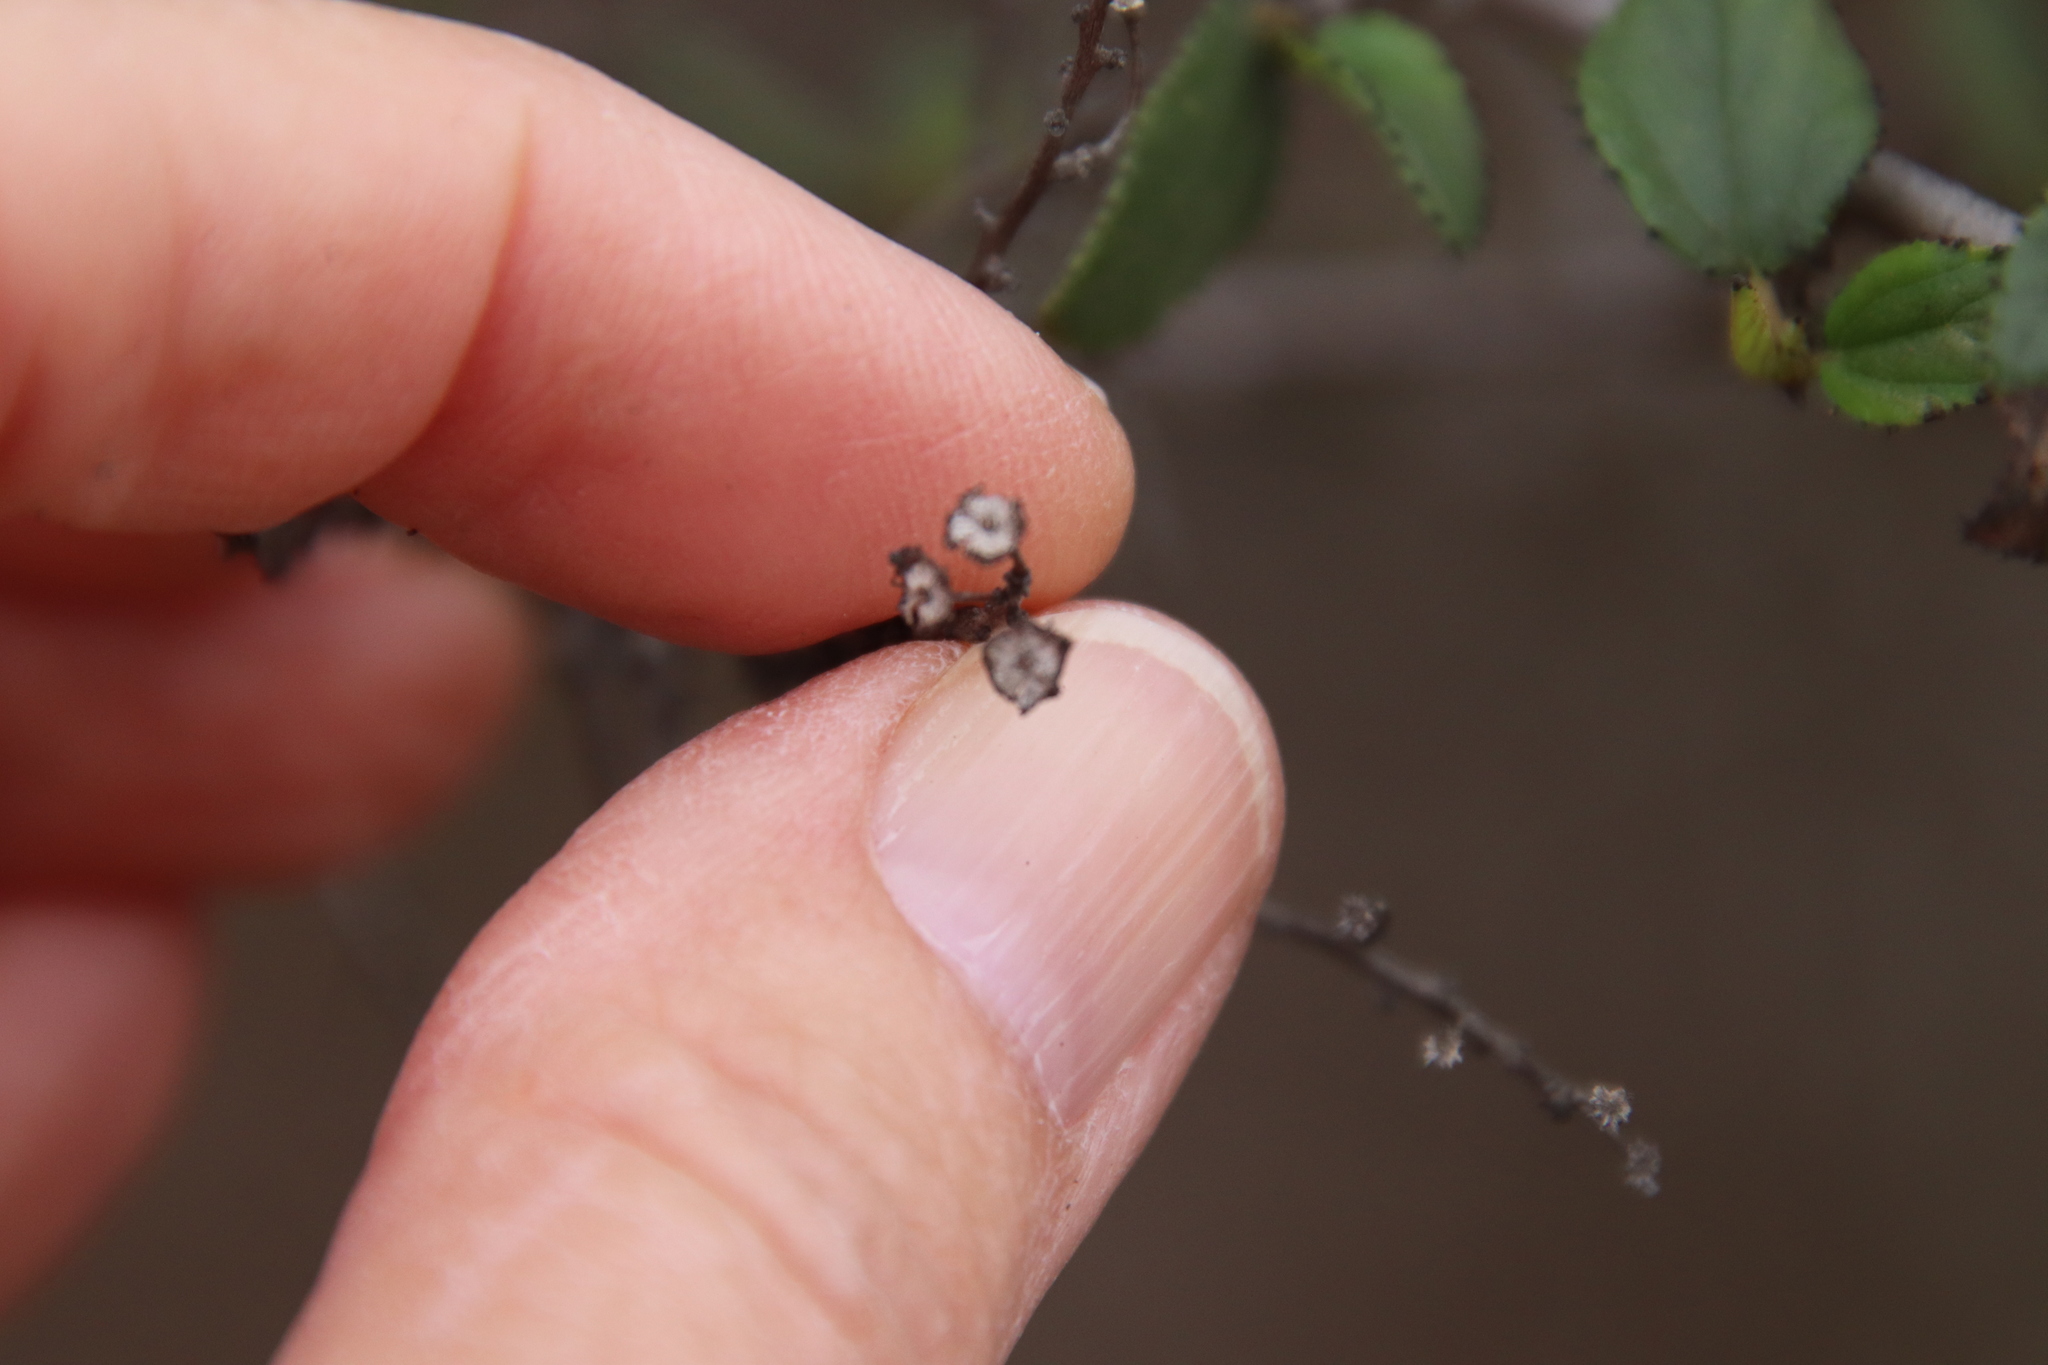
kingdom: Plantae
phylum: Tracheophyta
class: Magnoliopsida
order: Rosales
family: Rhamnaceae
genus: Ceanothus
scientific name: Ceanothus tomentosus
